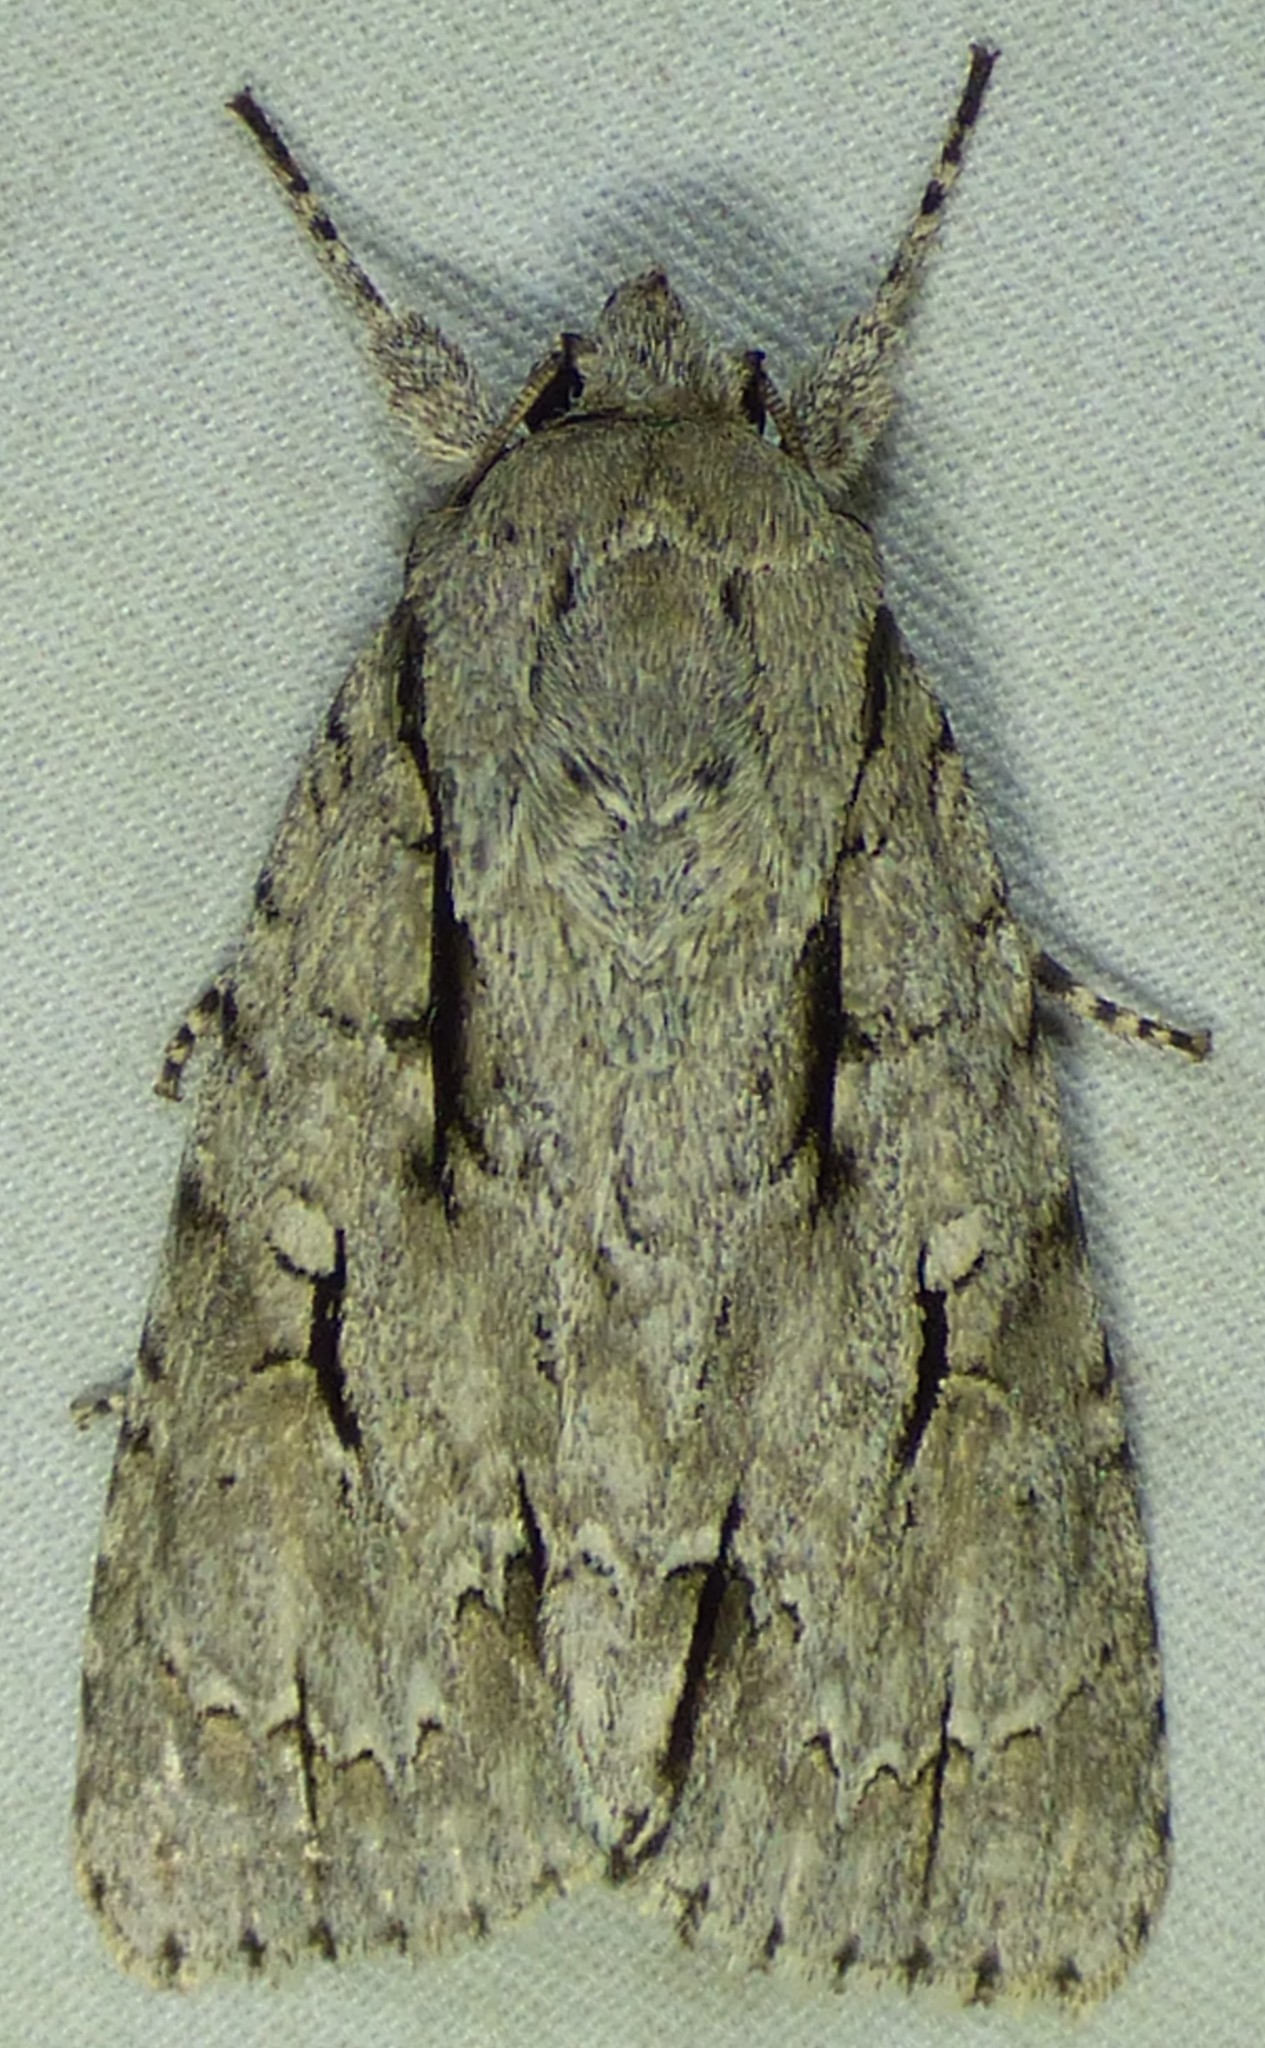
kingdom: Animalia
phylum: Arthropoda
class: Insecta
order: Lepidoptera
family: Noctuidae
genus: Acronicta
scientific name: Acronicta lobeliae
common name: Greater oak dagger
